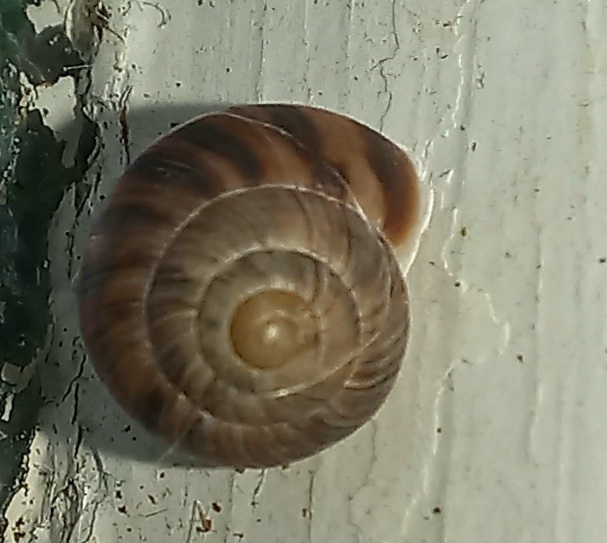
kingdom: Animalia
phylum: Mollusca
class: Gastropoda
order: Stylommatophora
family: Charopidae
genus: Serpho
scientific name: Serpho
